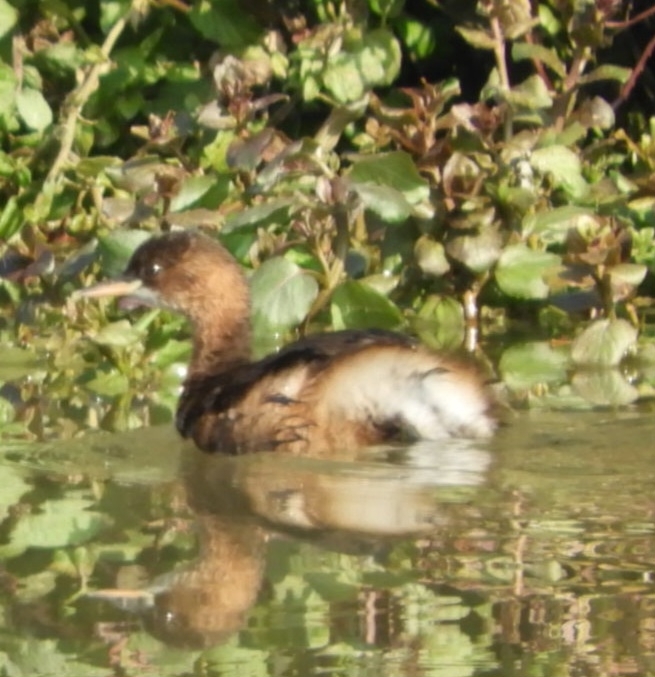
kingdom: Animalia
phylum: Chordata
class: Aves
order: Podicipediformes
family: Podicipedidae
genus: Tachybaptus
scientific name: Tachybaptus ruficollis
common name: Little grebe
